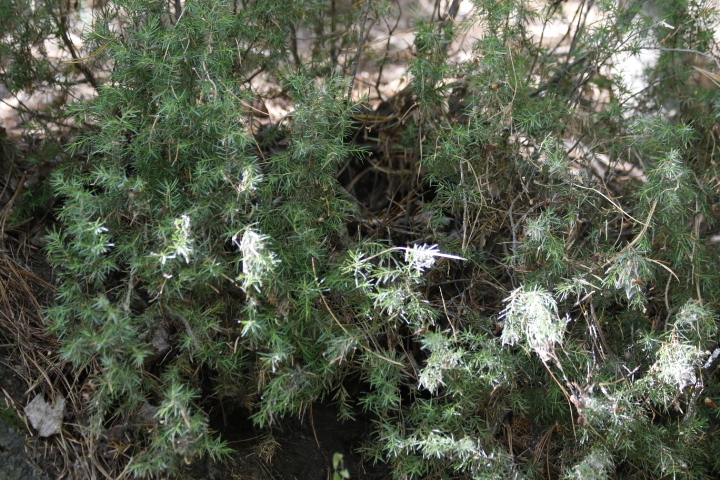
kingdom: Plantae
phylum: Tracheophyta
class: Pinopsida
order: Pinales
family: Cupressaceae
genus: Juniperus
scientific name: Juniperus communis
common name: Common juniper
